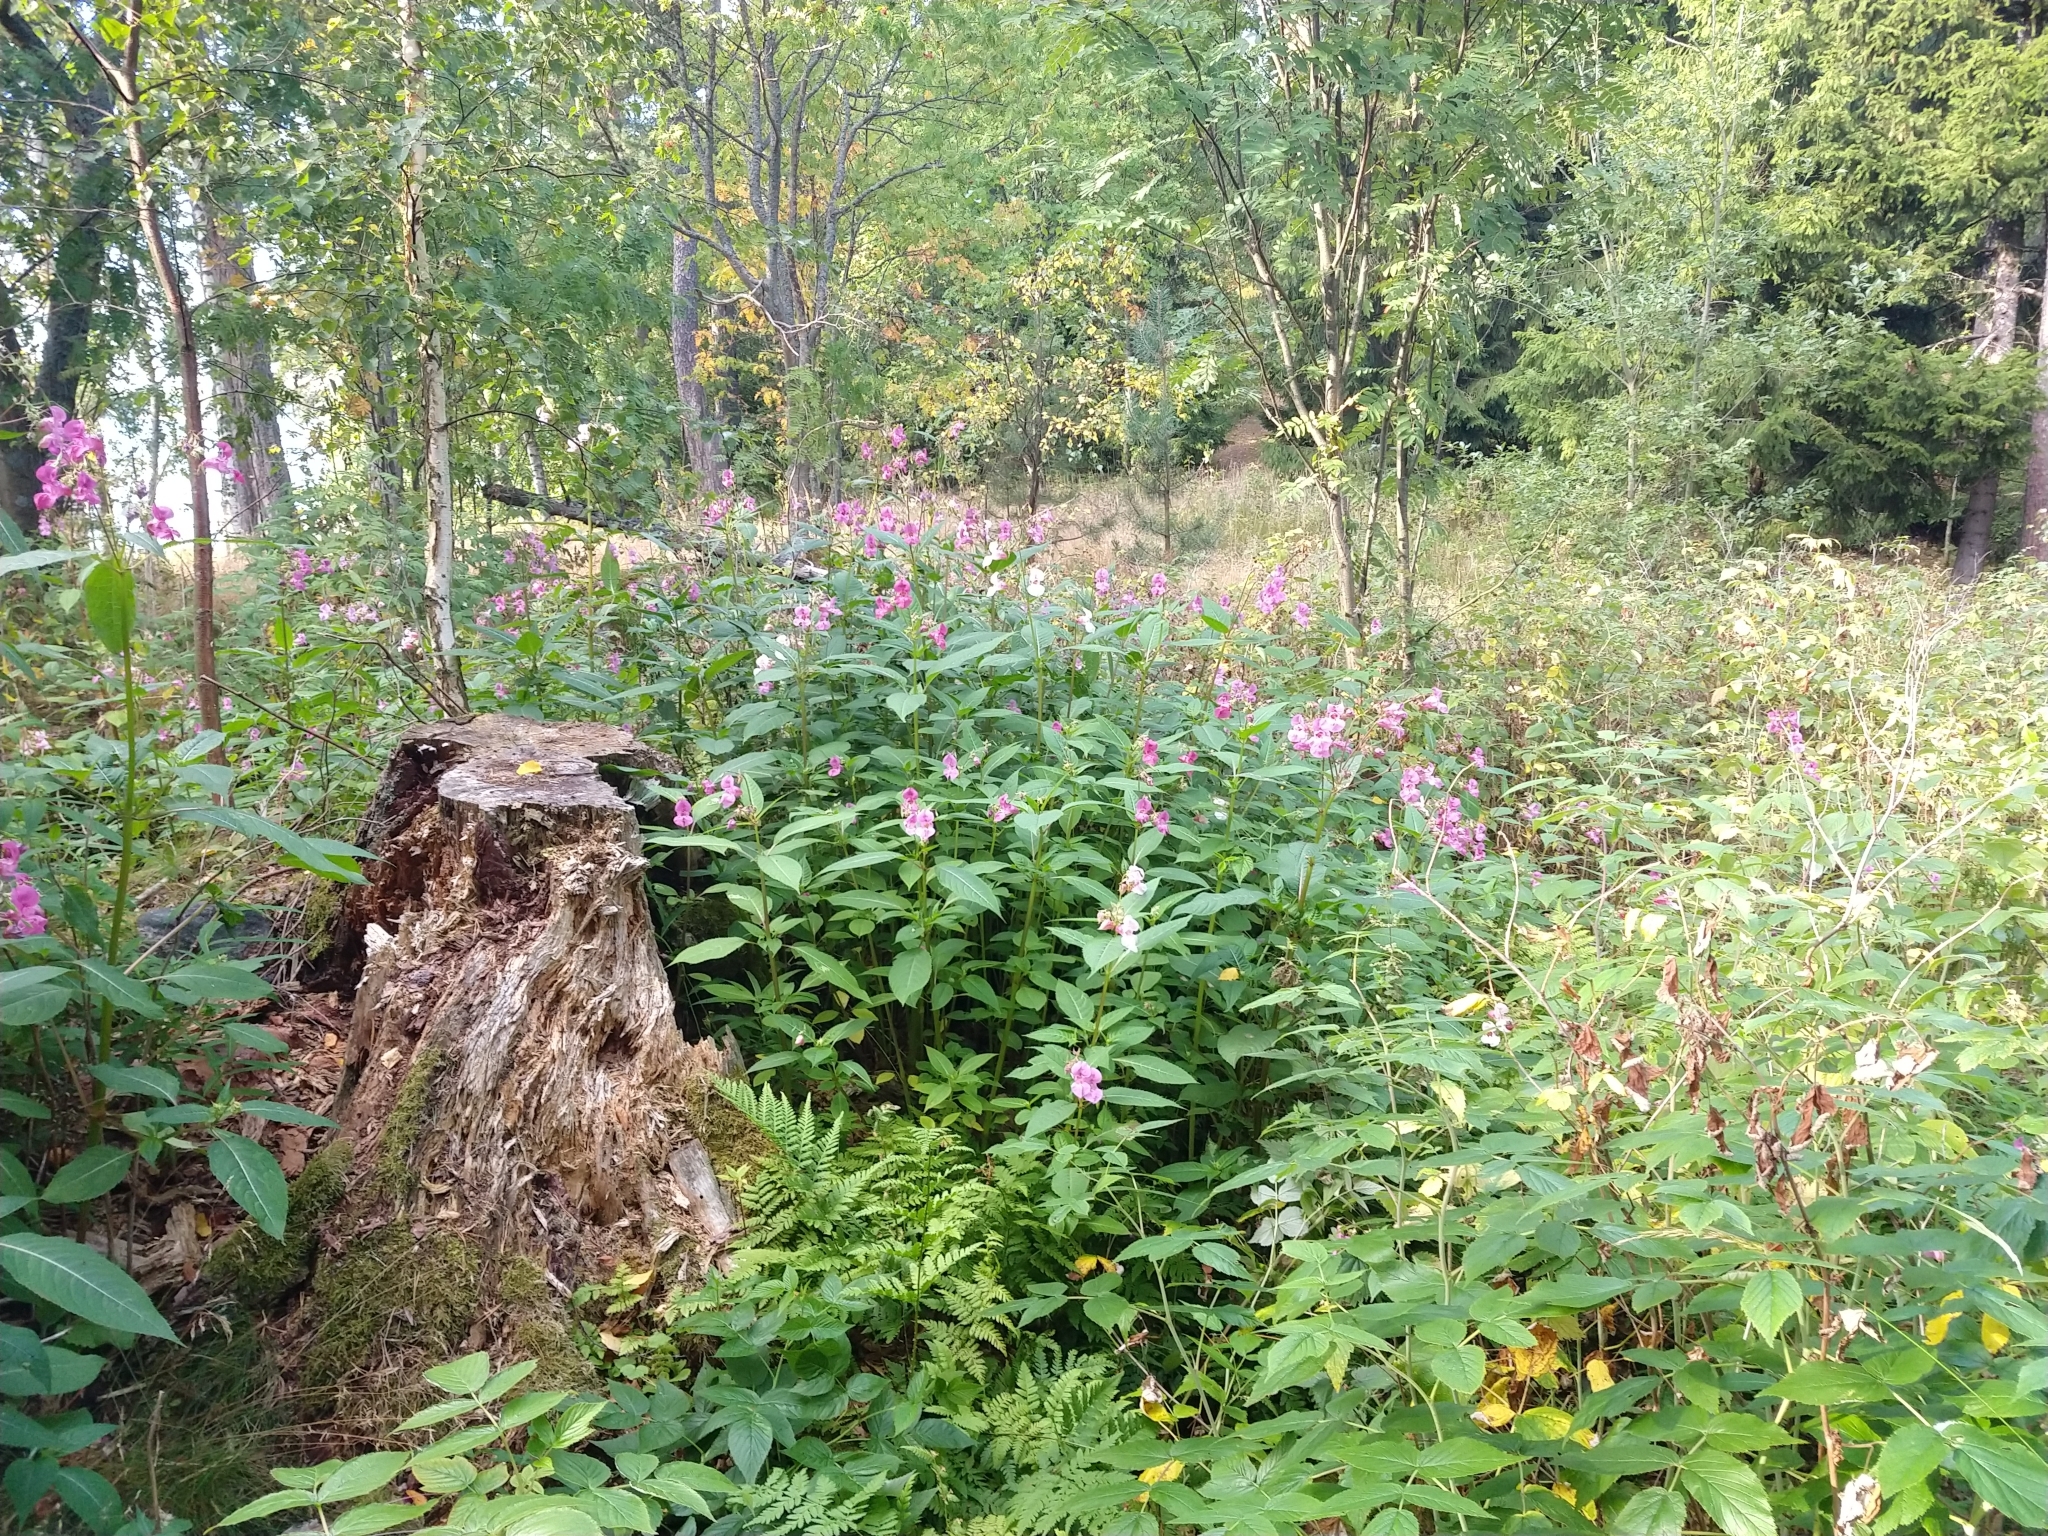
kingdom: Plantae
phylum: Tracheophyta
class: Magnoliopsida
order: Ericales
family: Balsaminaceae
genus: Impatiens
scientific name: Impatiens glandulifera
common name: Himalayan balsam
